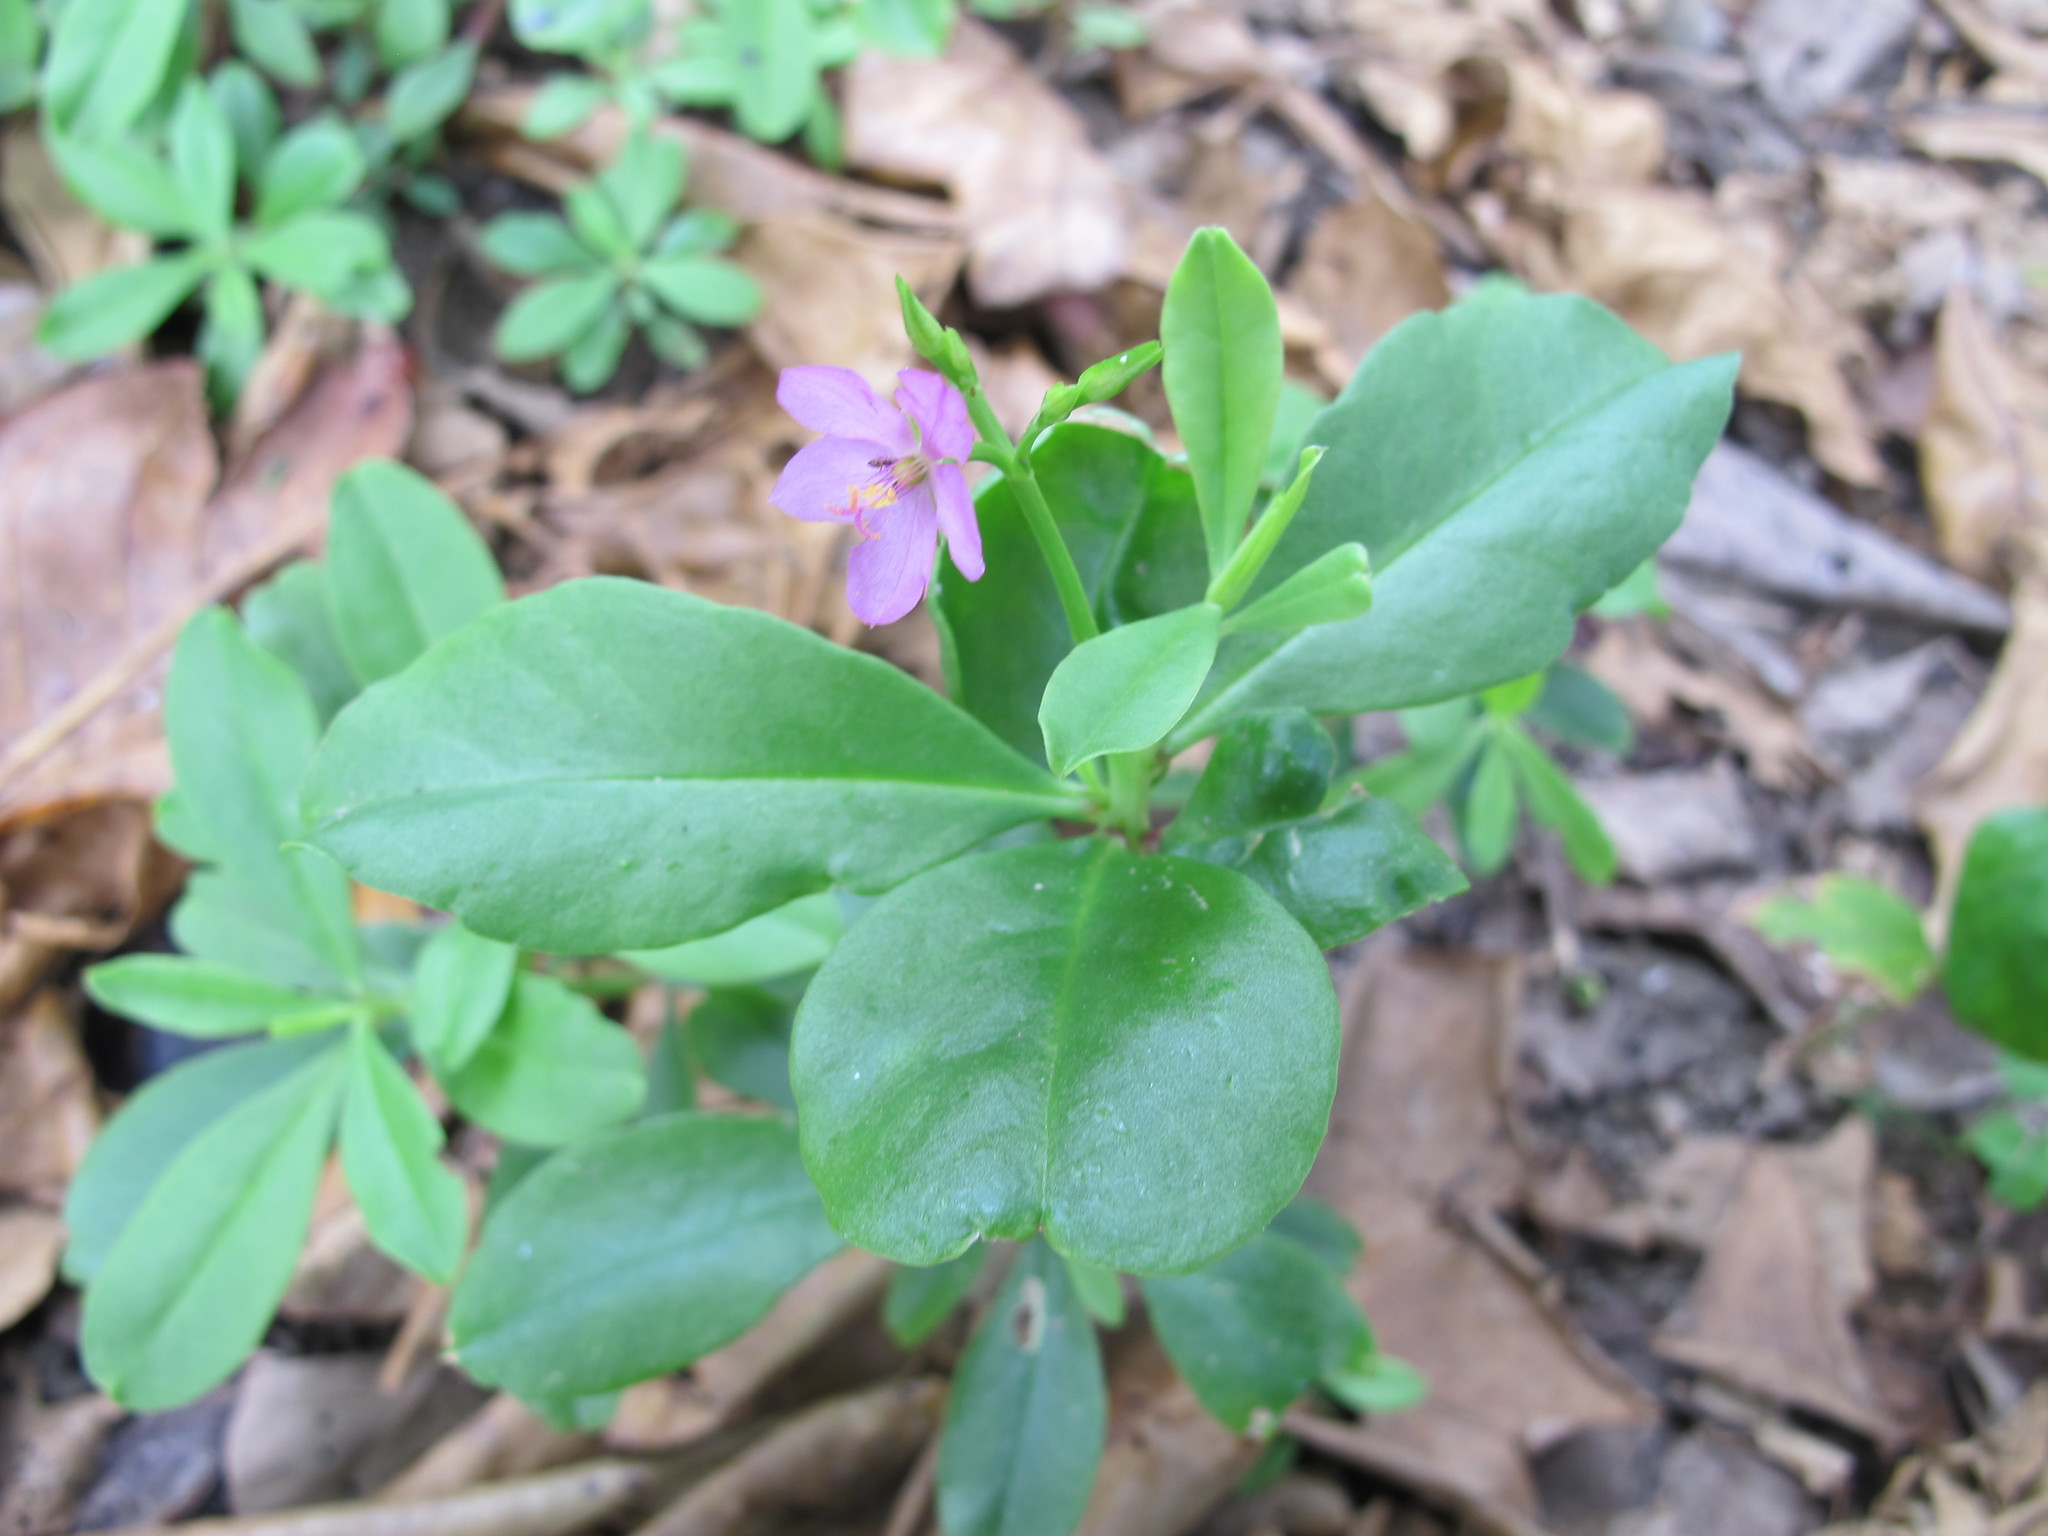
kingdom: Plantae
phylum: Tracheophyta
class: Magnoliopsida
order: Caryophyllales
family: Talinaceae
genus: Talinum
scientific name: Talinum fruticosum
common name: Verdolaga-francesa
